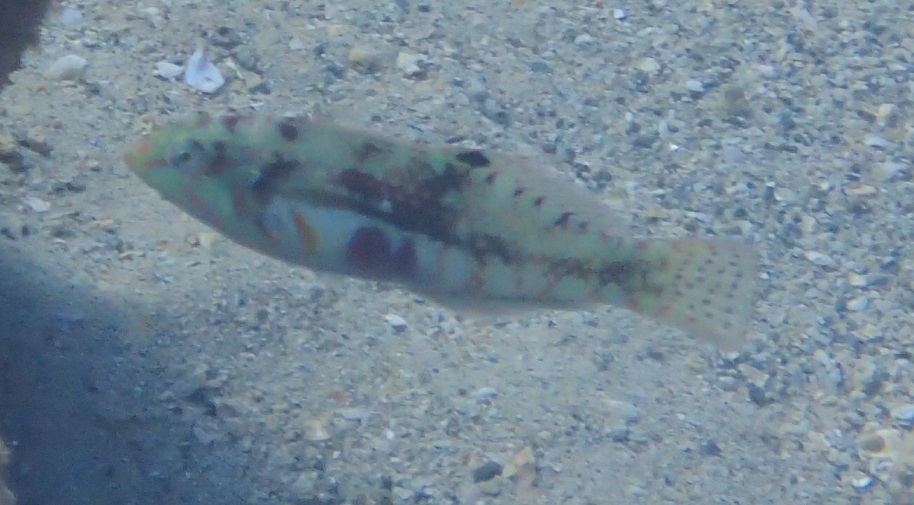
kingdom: Animalia
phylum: Chordata
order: Perciformes
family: Labridae
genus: Halichoeres
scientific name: Halichoeres nebulosus
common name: Clouded wrasse
